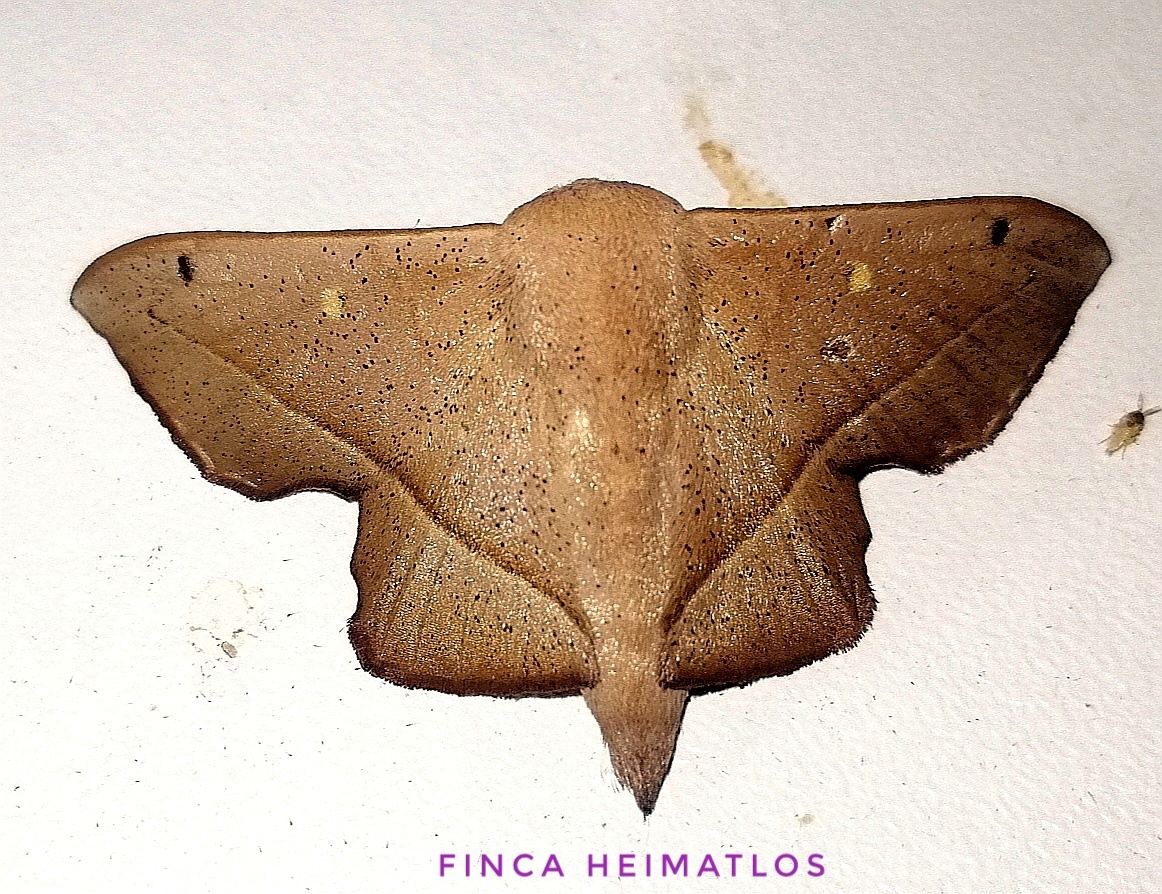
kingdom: Animalia
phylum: Arthropoda
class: Insecta
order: Lepidoptera
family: Mimallonidae
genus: Druentica
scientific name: Druentica partha
